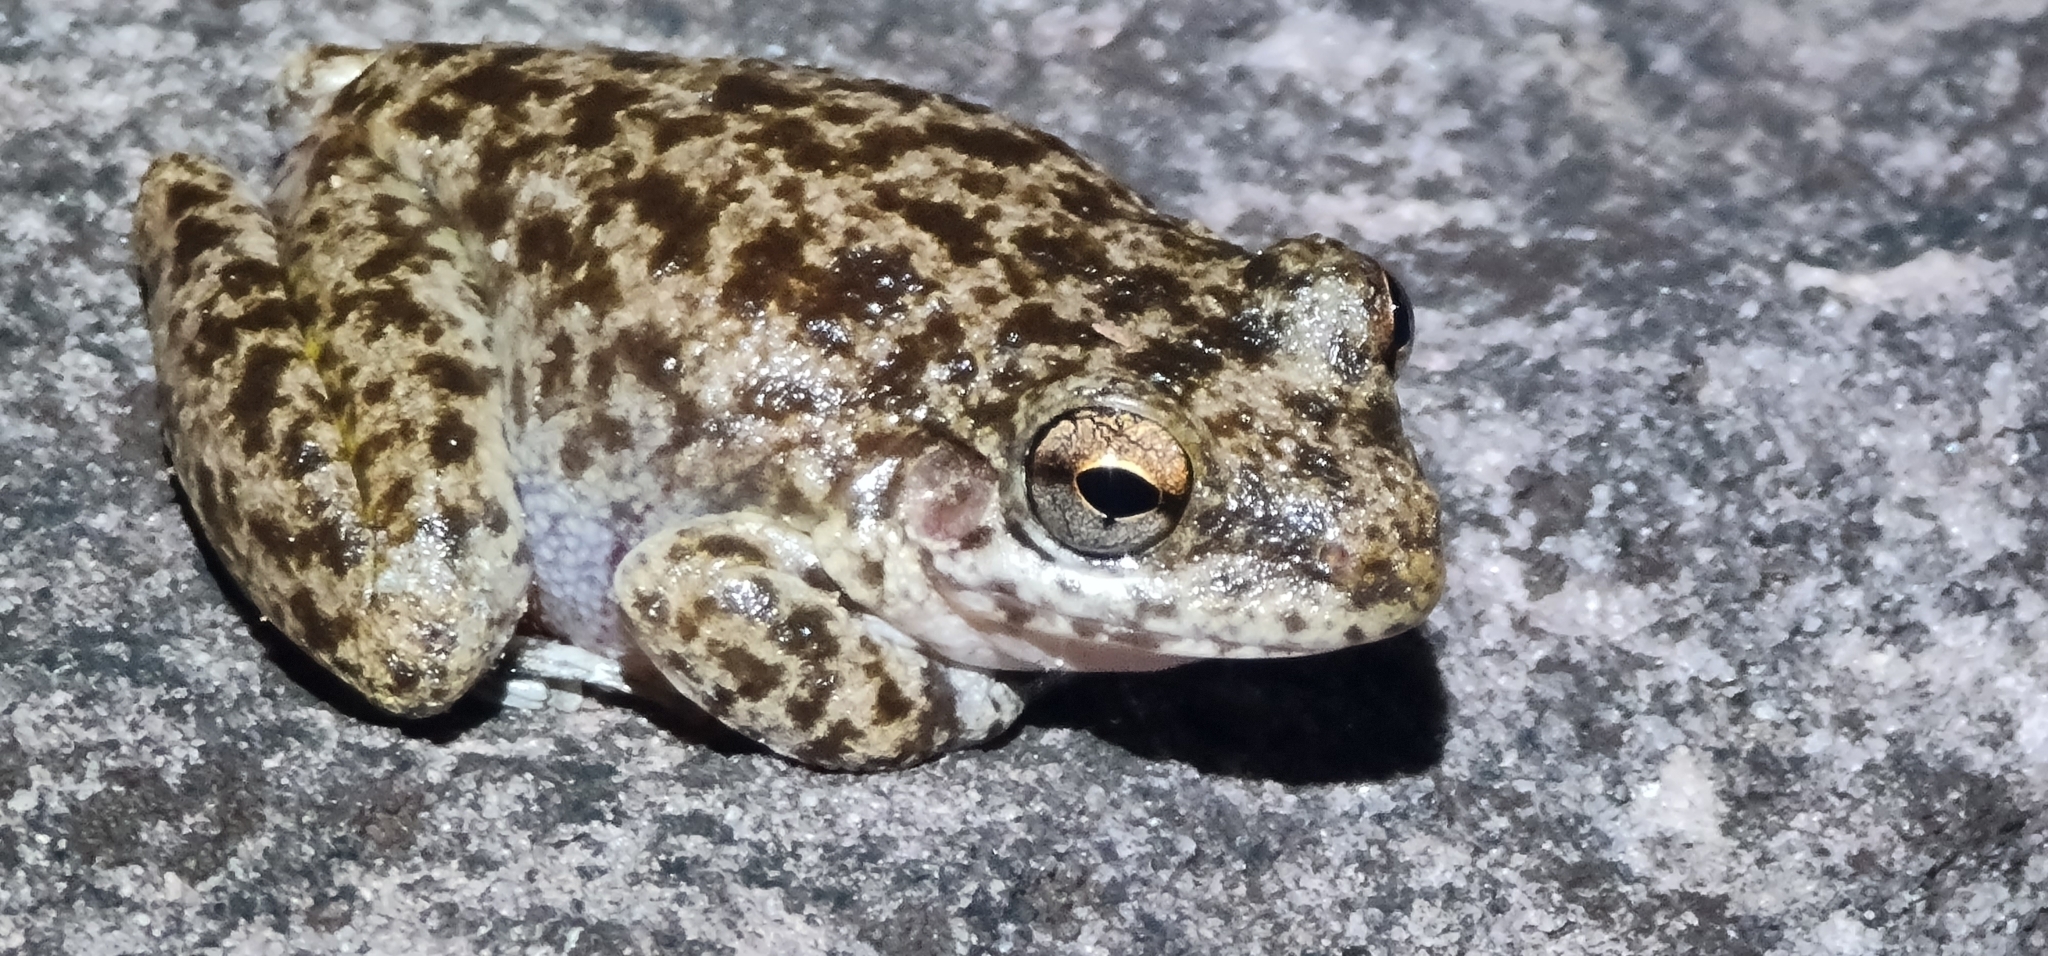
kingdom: Animalia
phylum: Chordata
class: Amphibia
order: Anura
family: Pelodryadidae
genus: Litoria
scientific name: Litoria coplandi
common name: Copland’s rock frog
